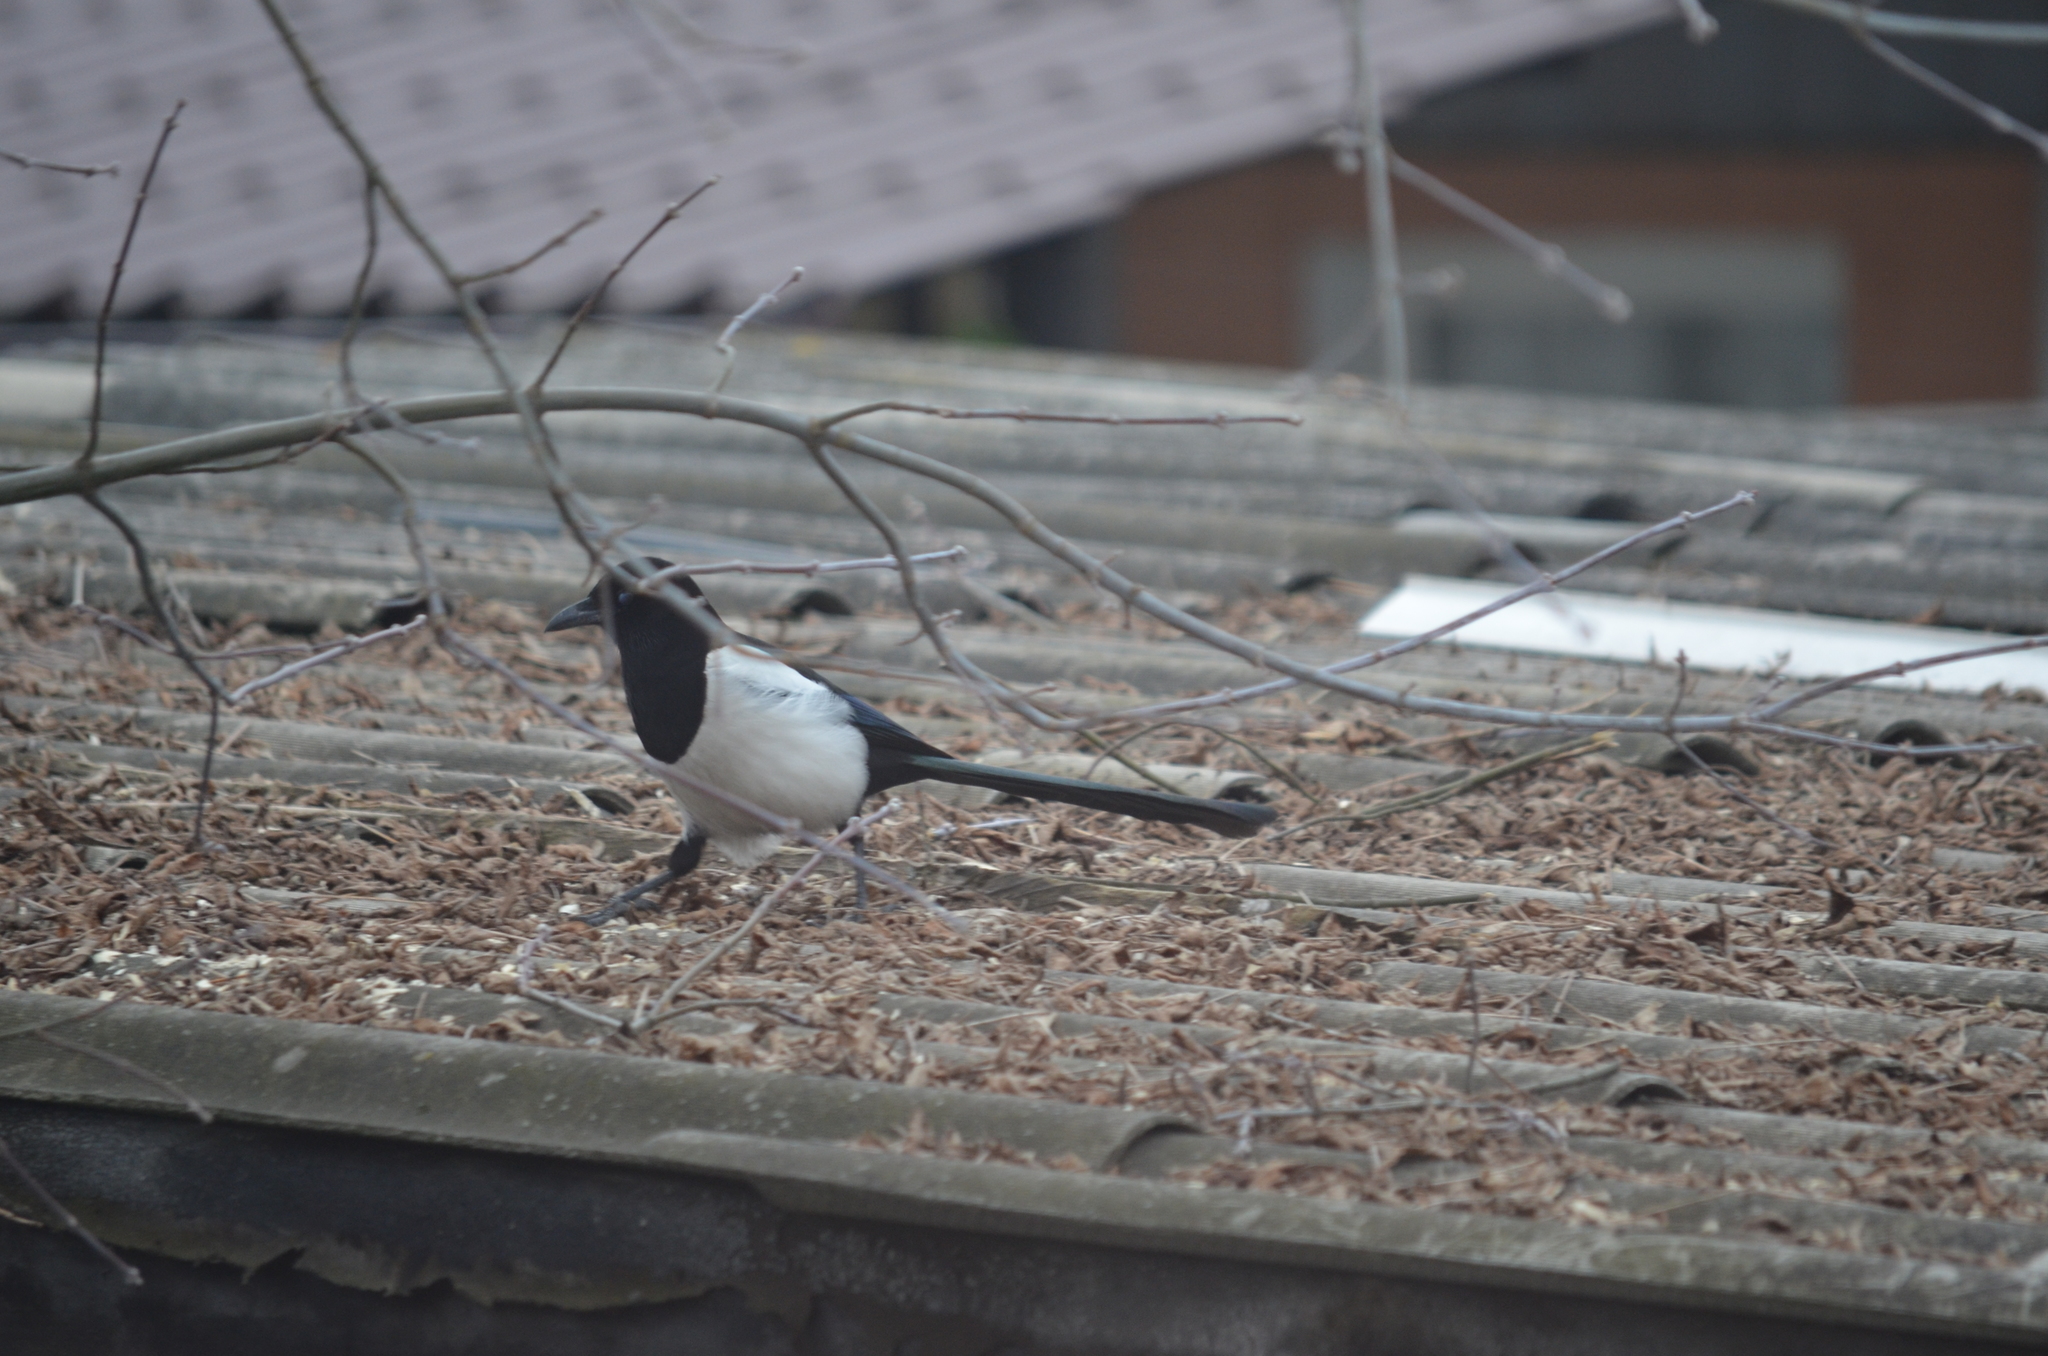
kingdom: Animalia
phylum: Chordata
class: Aves
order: Passeriformes
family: Corvidae
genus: Pica
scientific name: Pica pica
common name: Eurasian magpie
